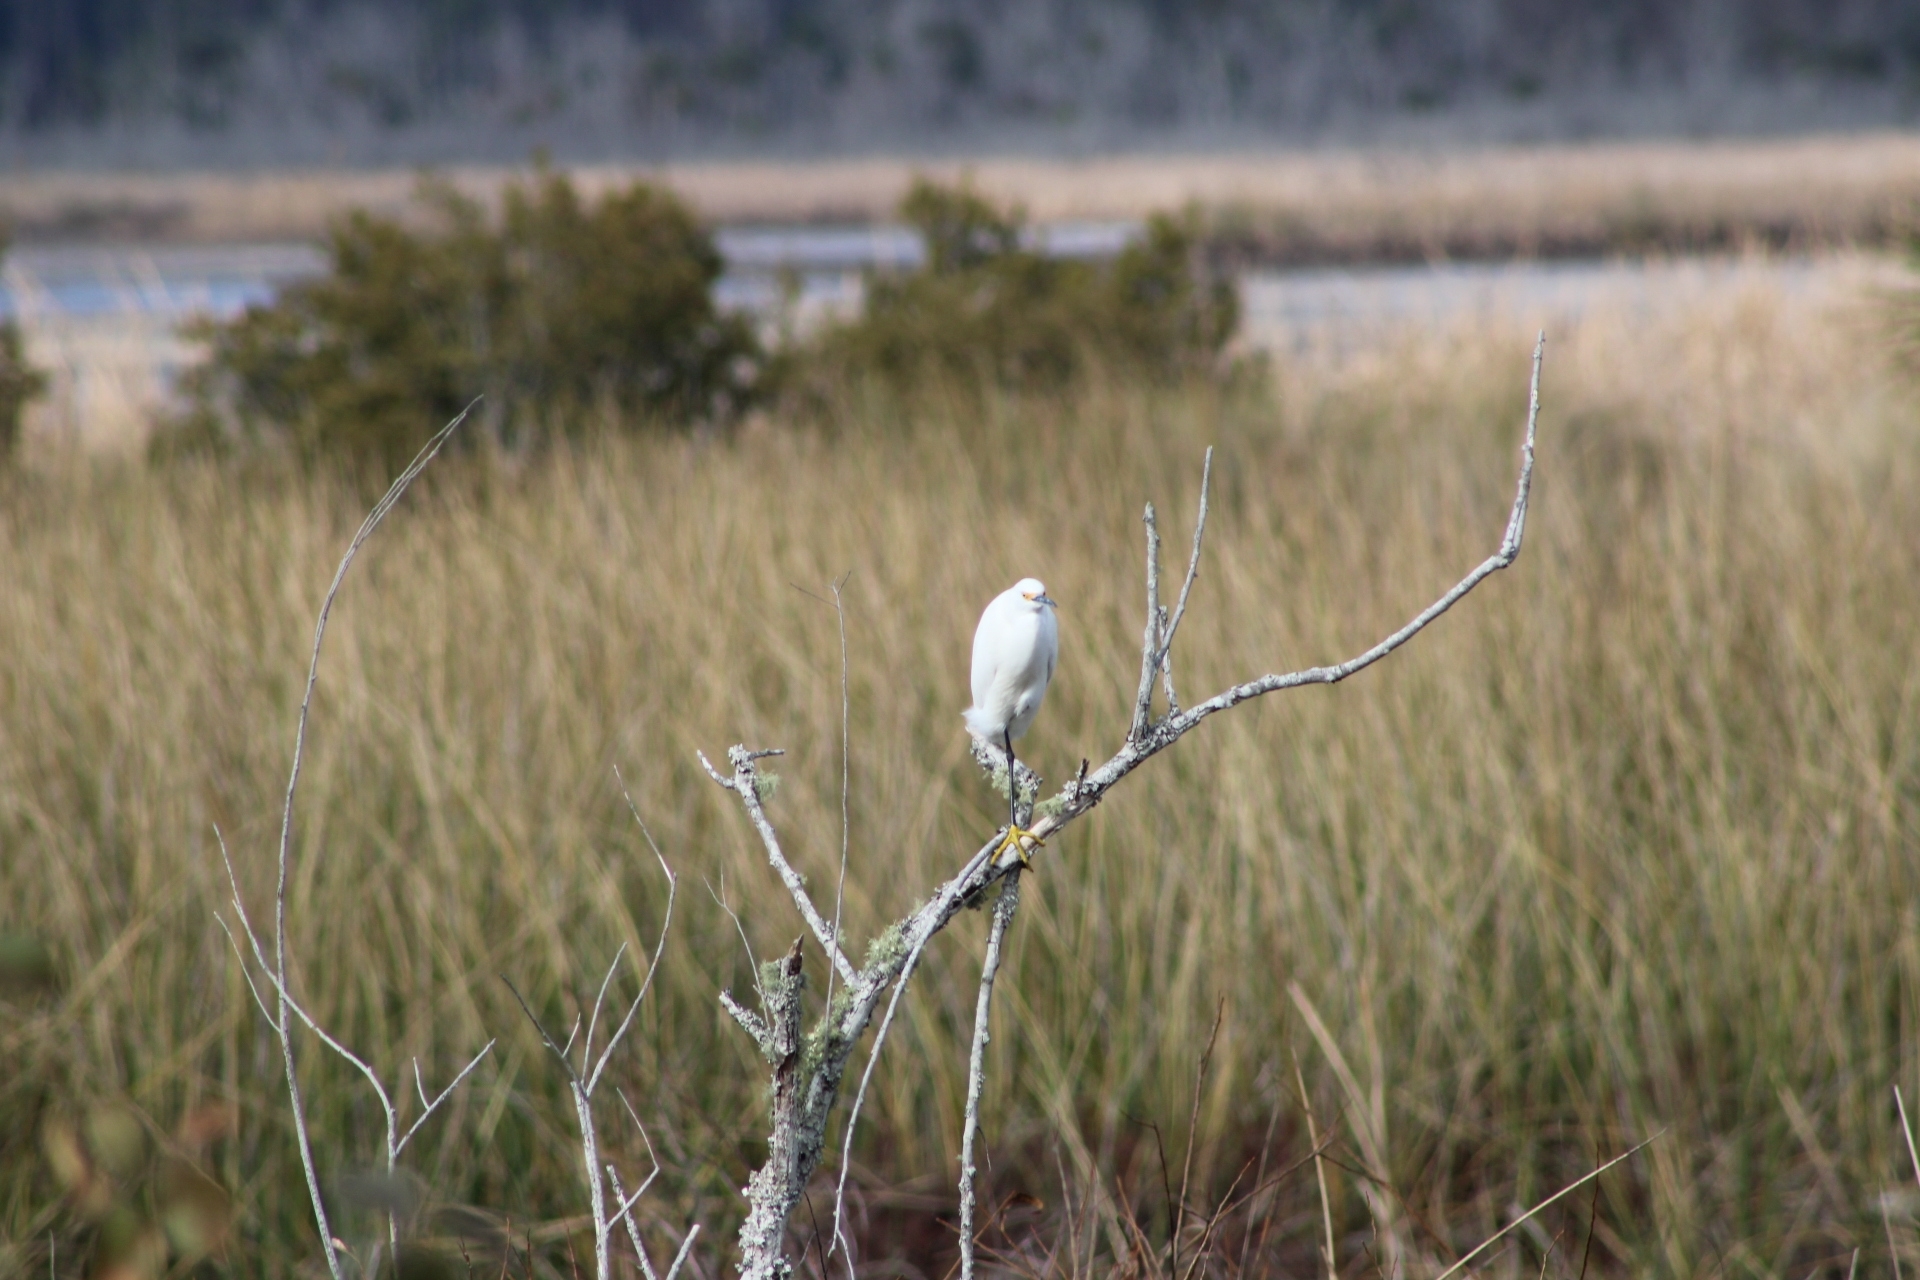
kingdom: Animalia
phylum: Chordata
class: Aves
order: Pelecaniformes
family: Ardeidae
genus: Egretta
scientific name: Egretta thula
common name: Snowy egret
